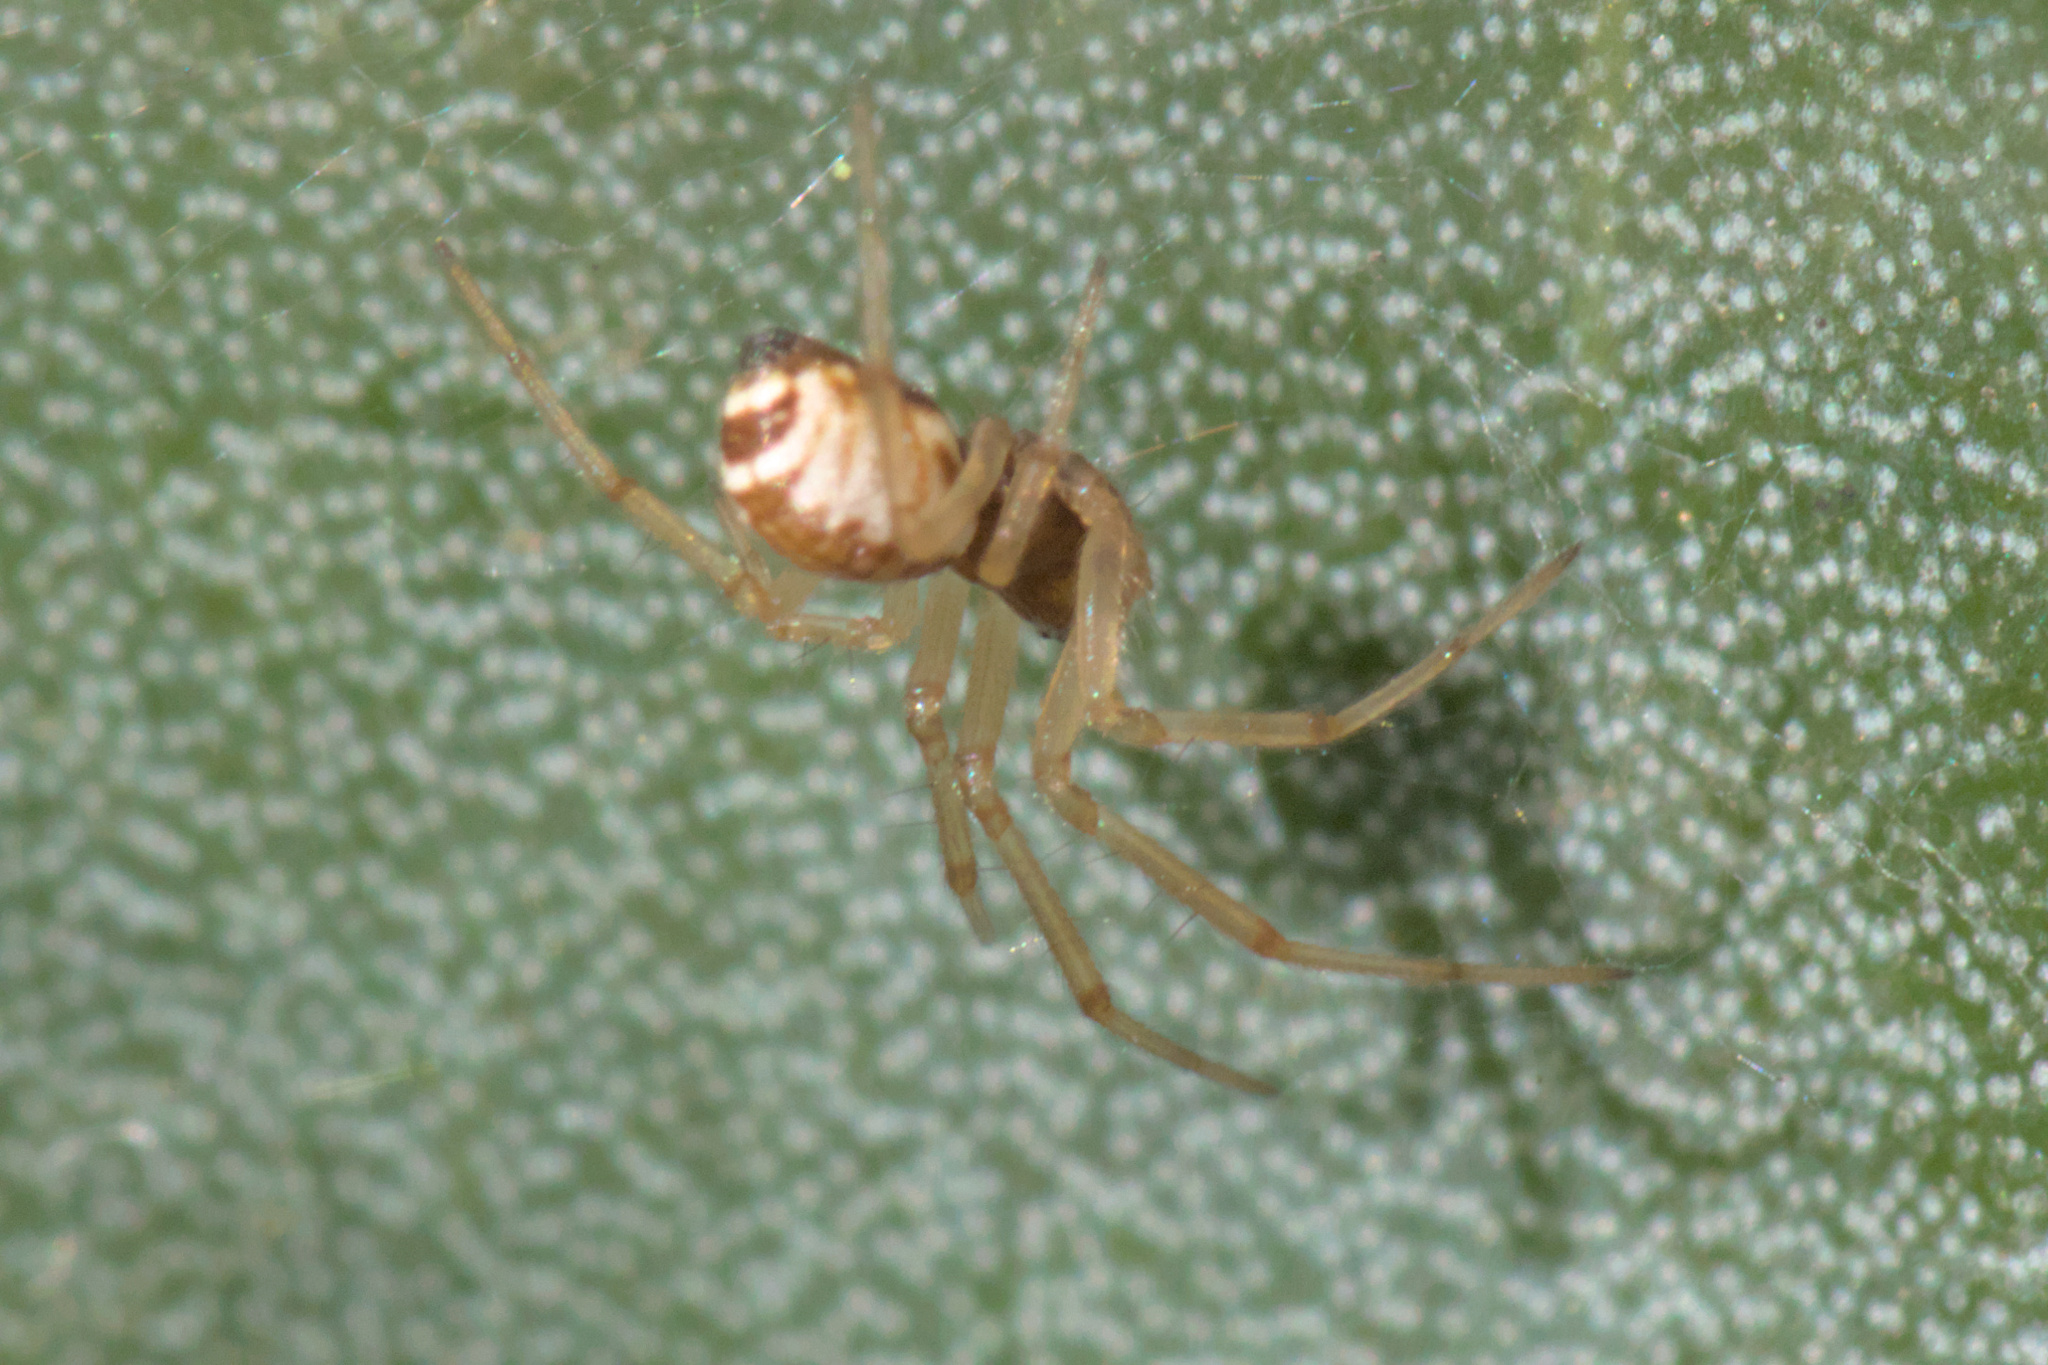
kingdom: Animalia
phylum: Arthropoda
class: Arachnida
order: Araneae
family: Linyphiidae
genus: Frontinellina
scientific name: Frontinellina frutetorum
